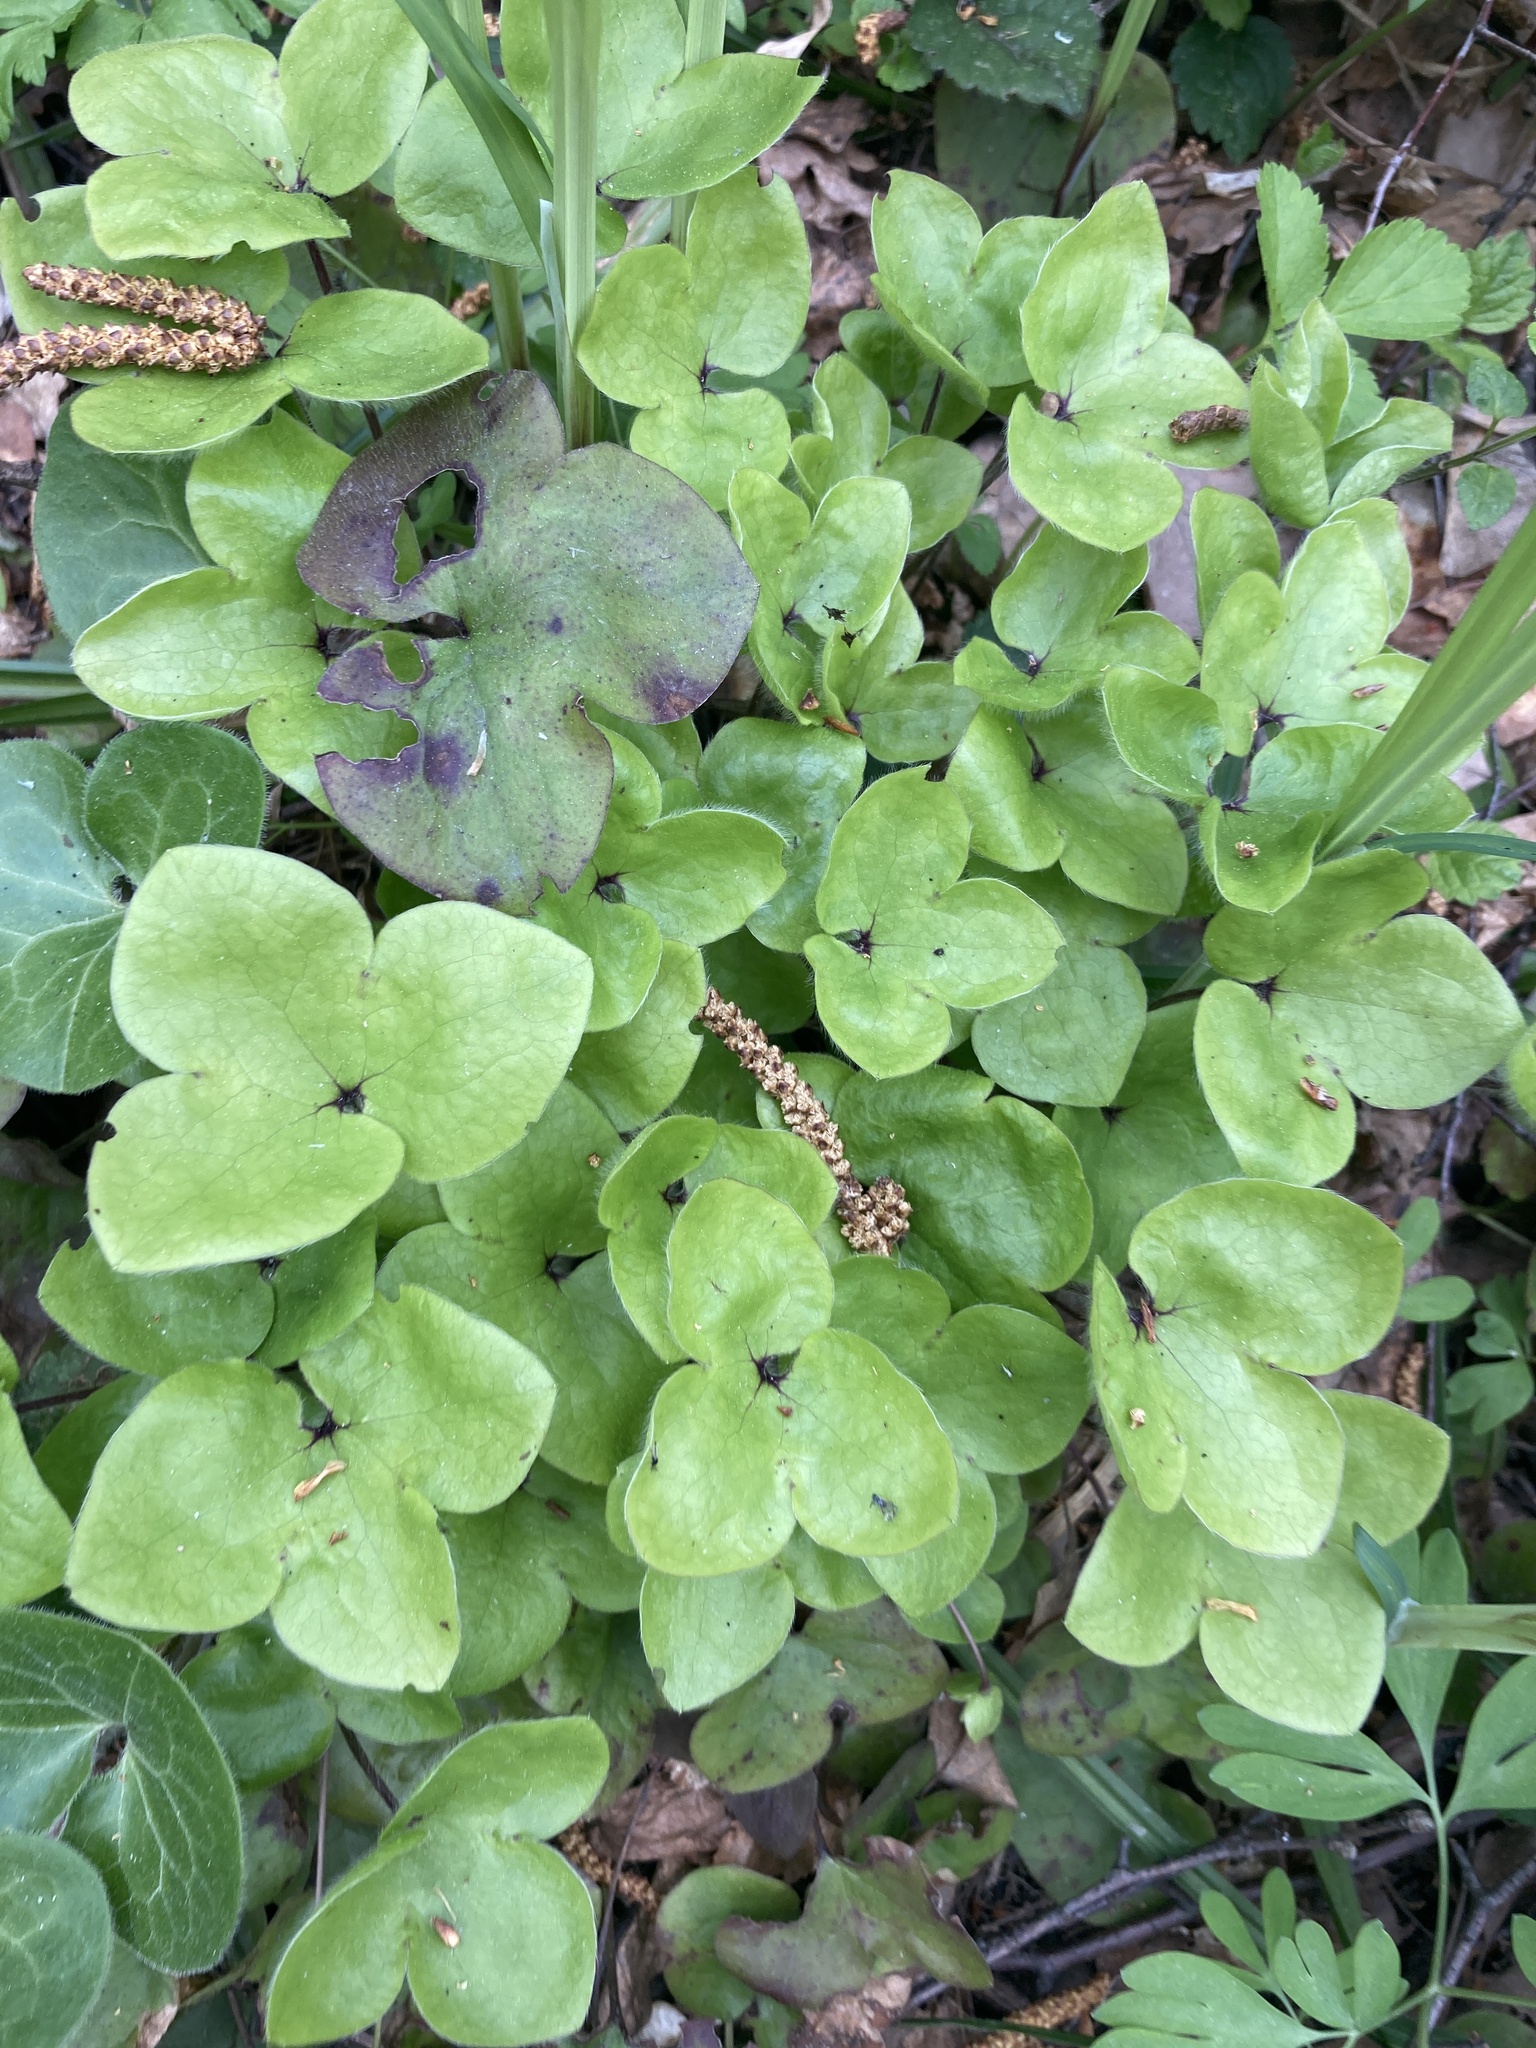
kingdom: Plantae
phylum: Tracheophyta
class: Magnoliopsida
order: Ranunculales
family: Ranunculaceae
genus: Hepatica
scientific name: Hepatica nobilis
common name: Liverleaf
